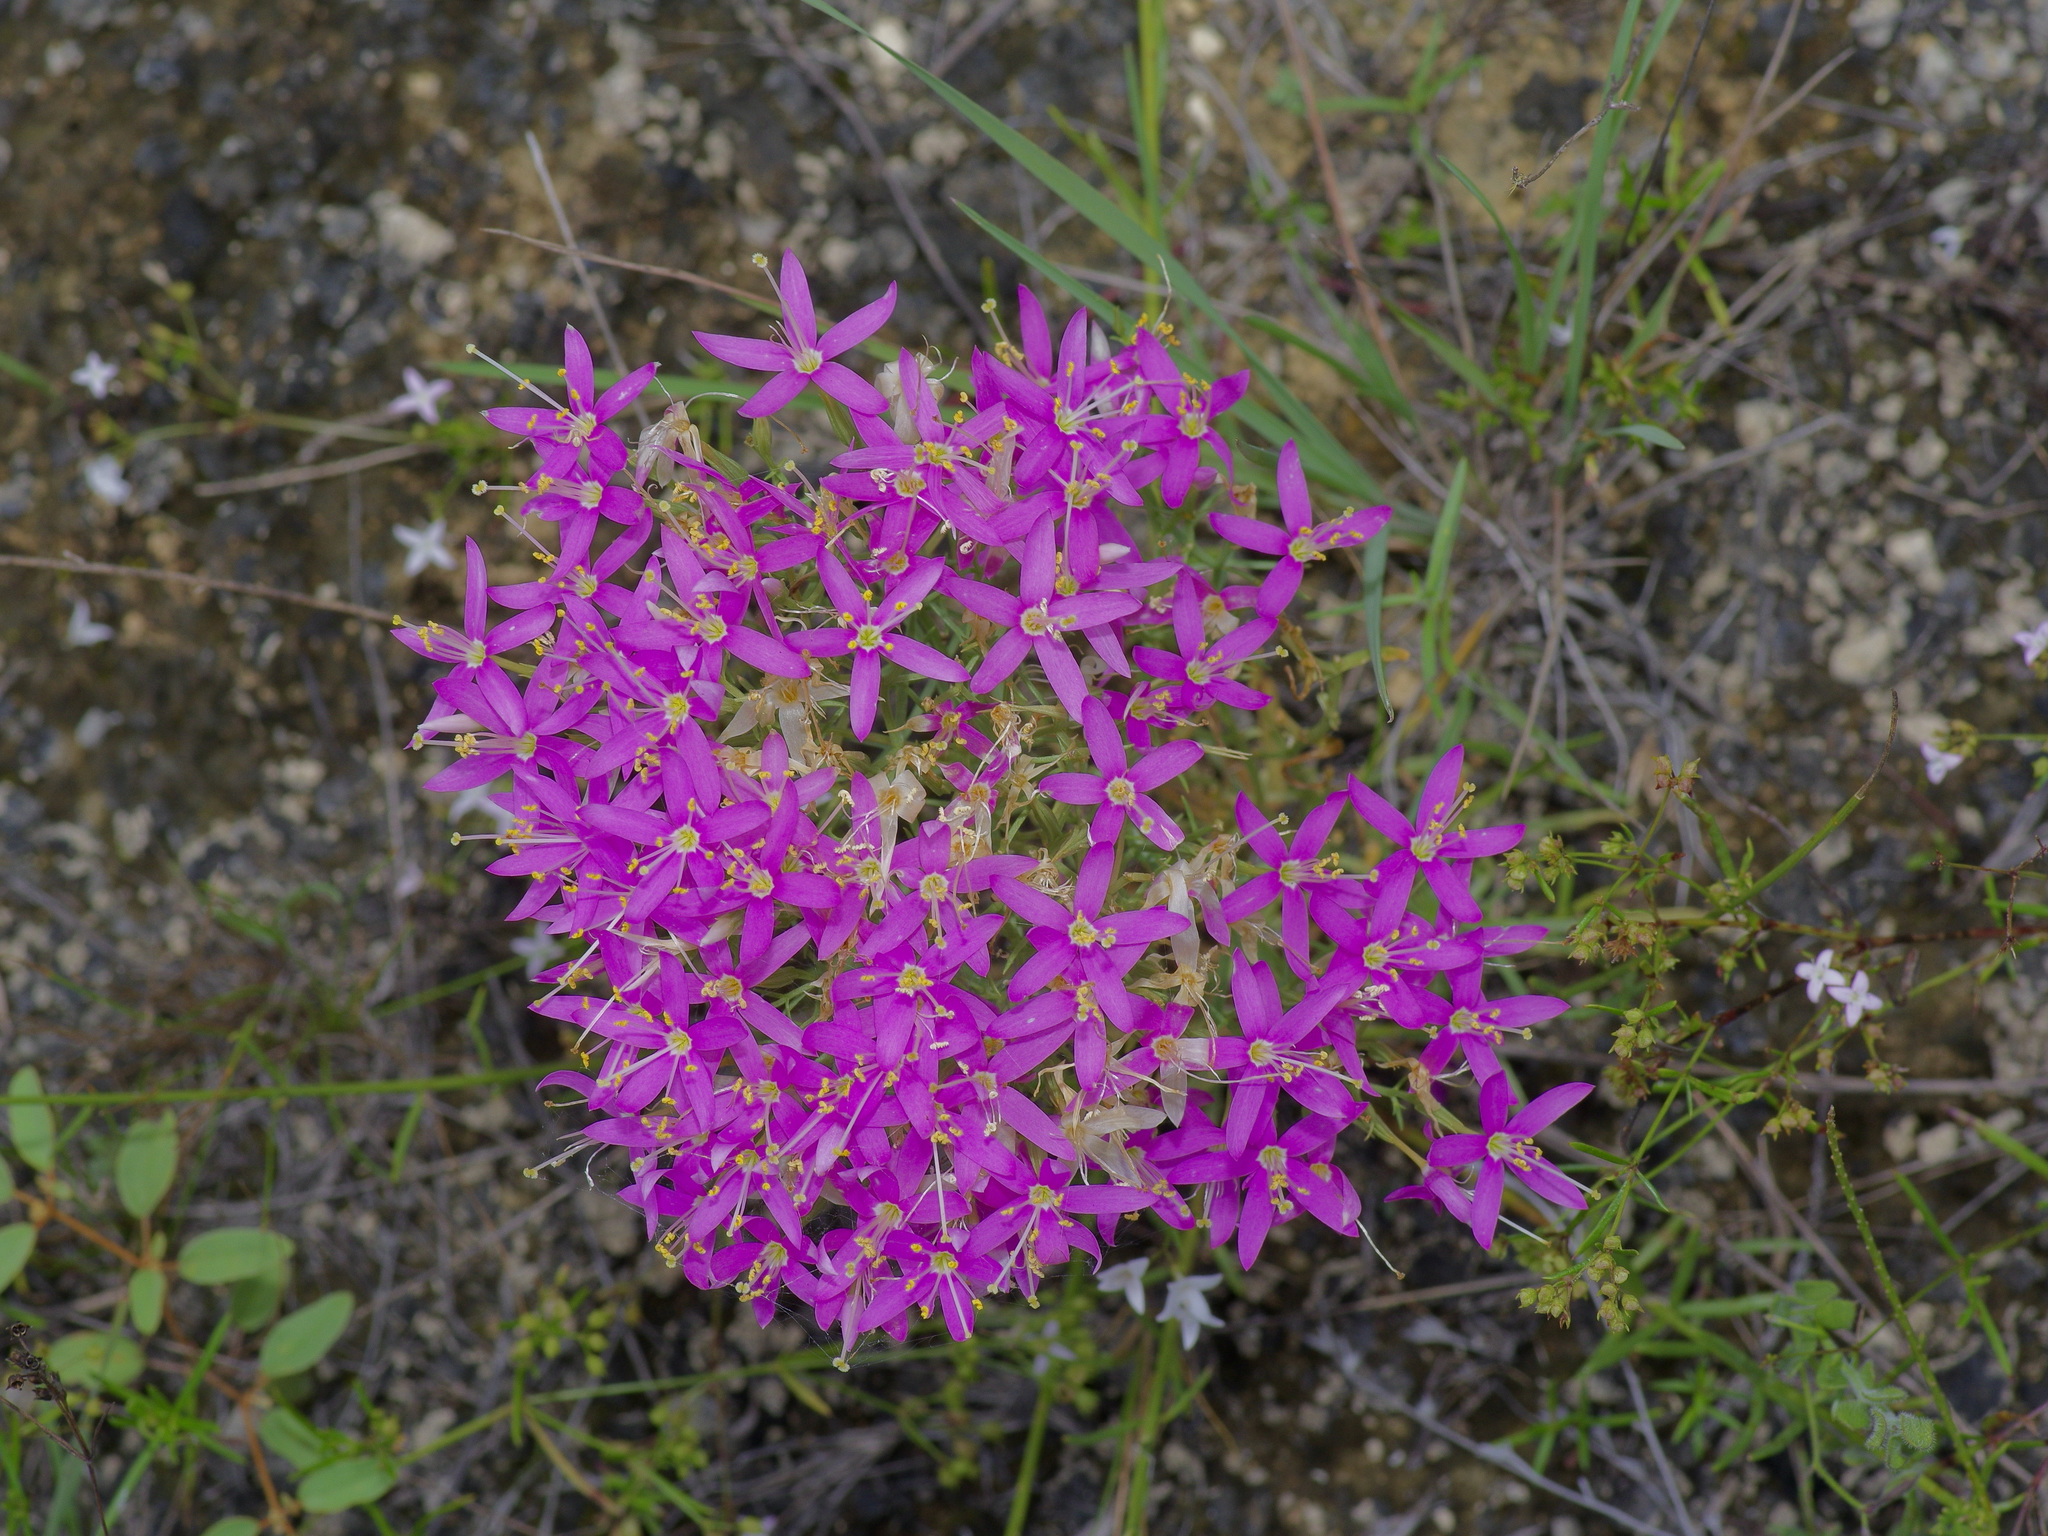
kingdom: Plantae
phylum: Tracheophyta
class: Magnoliopsida
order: Gentianales
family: Gentianaceae
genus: Zeltnera
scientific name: Zeltnera beyrichii
